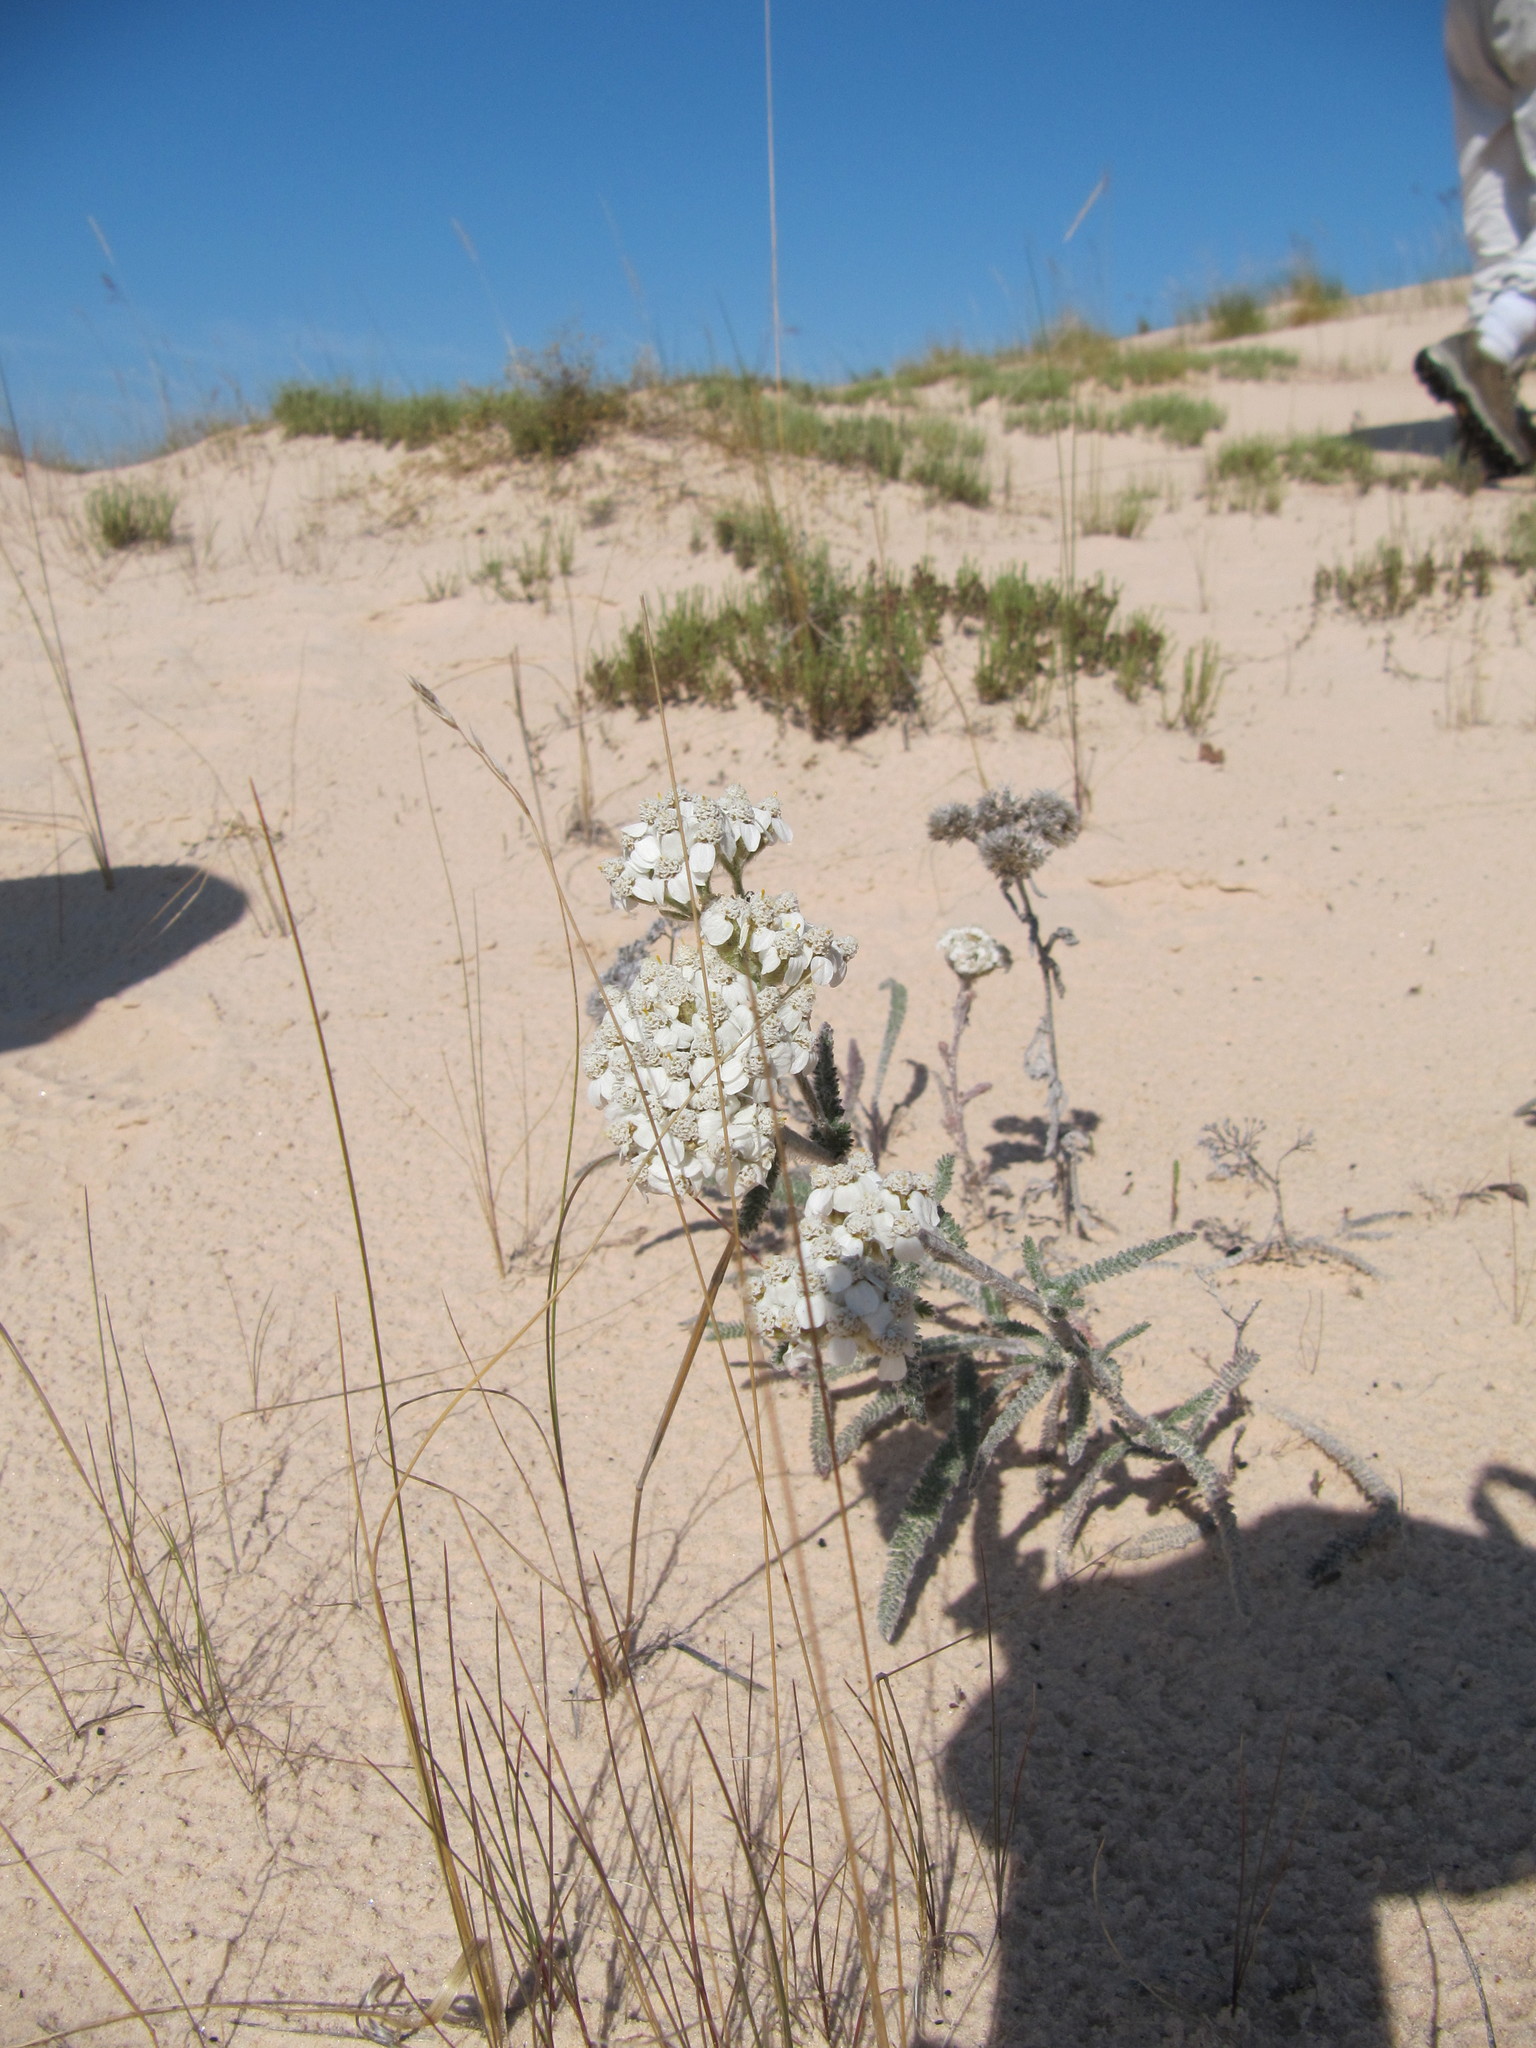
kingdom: Plantae
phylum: Tracheophyta
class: Magnoliopsida
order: Asterales
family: Asteraceae
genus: Achillea
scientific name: Achillea millefolium
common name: Yarrow
